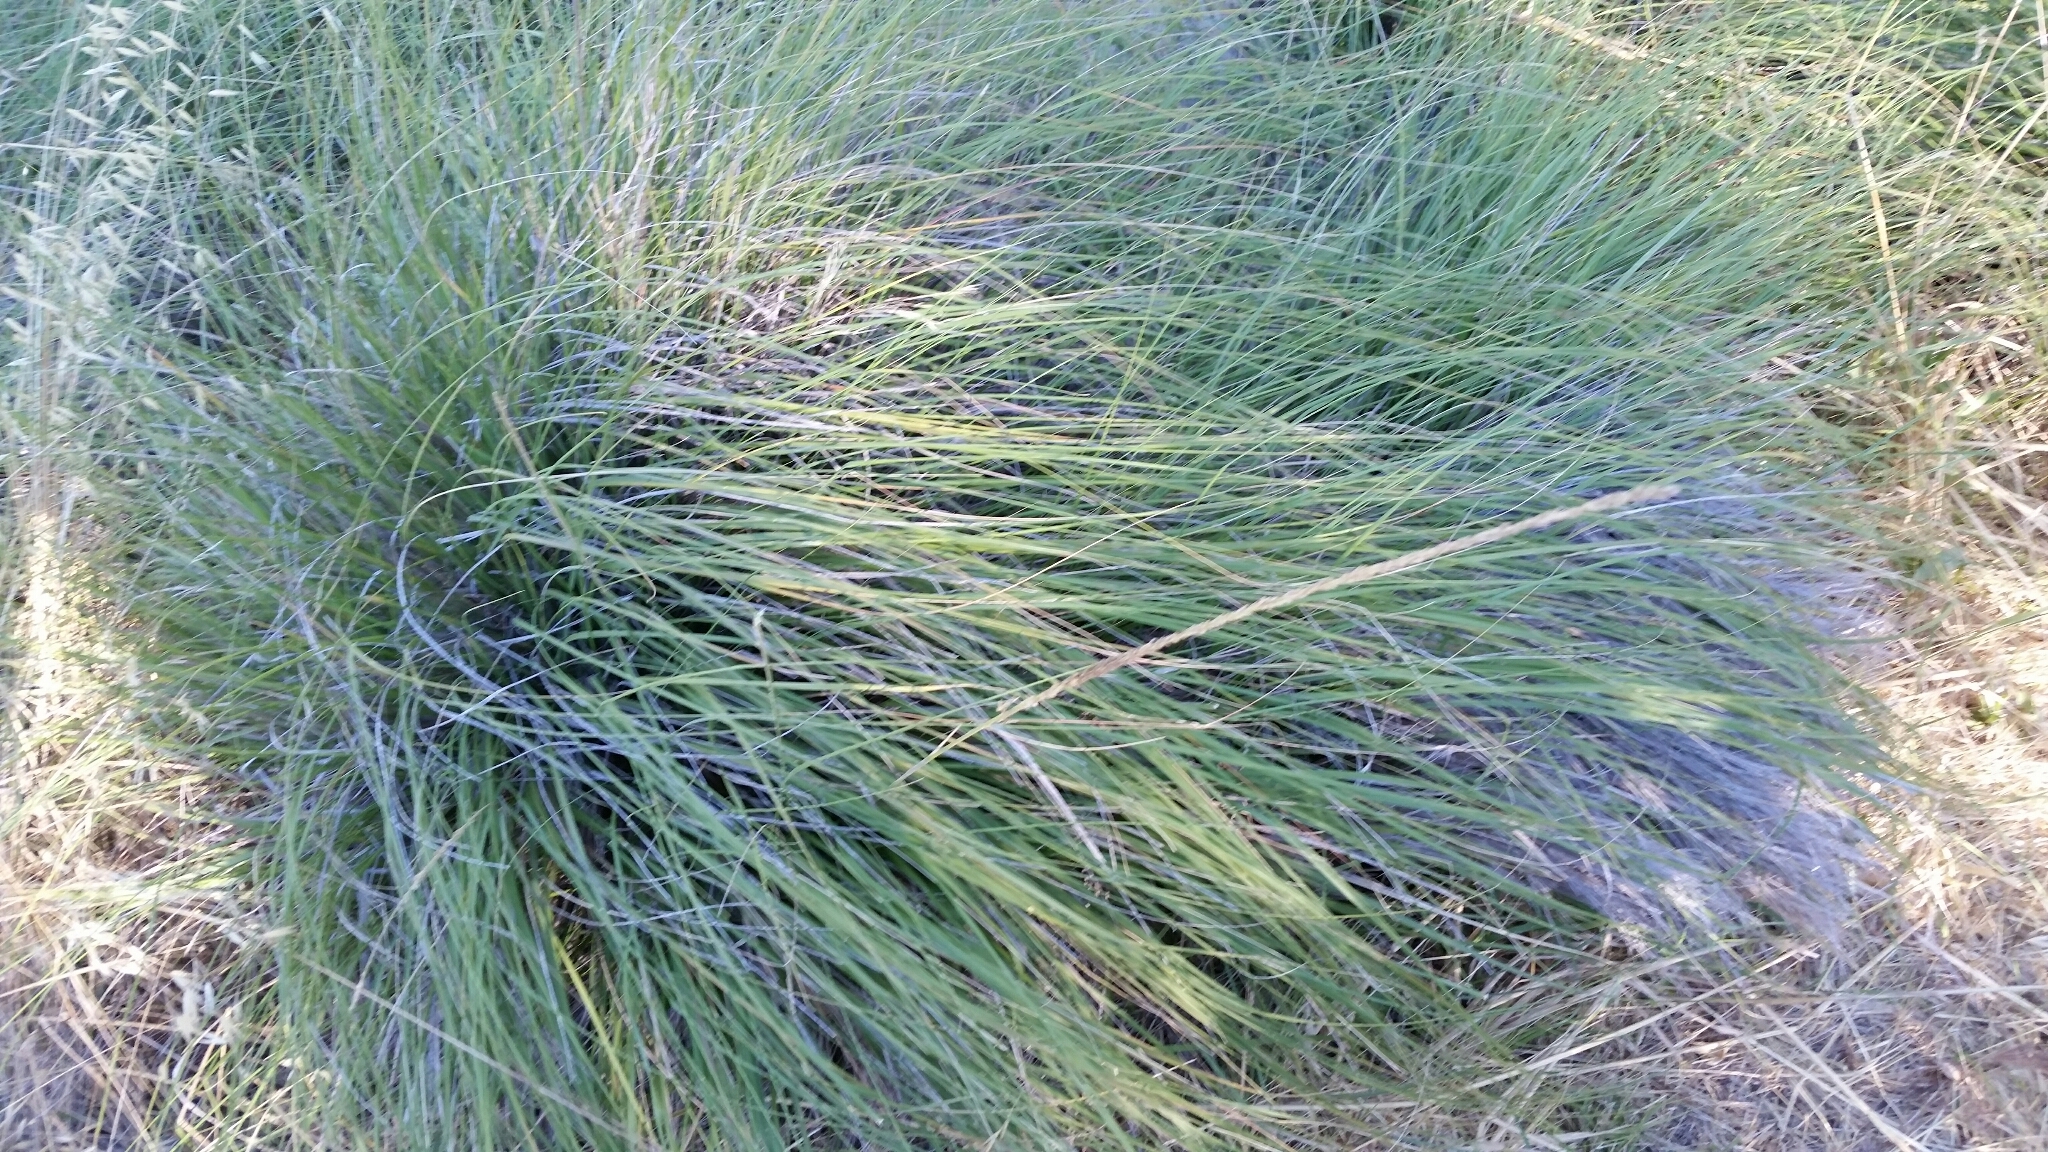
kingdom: Plantae
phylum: Tracheophyta
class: Liliopsida
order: Poales
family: Poaceae
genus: Muhlenbergia
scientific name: Muhlenbergia rigens
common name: Deer grass
